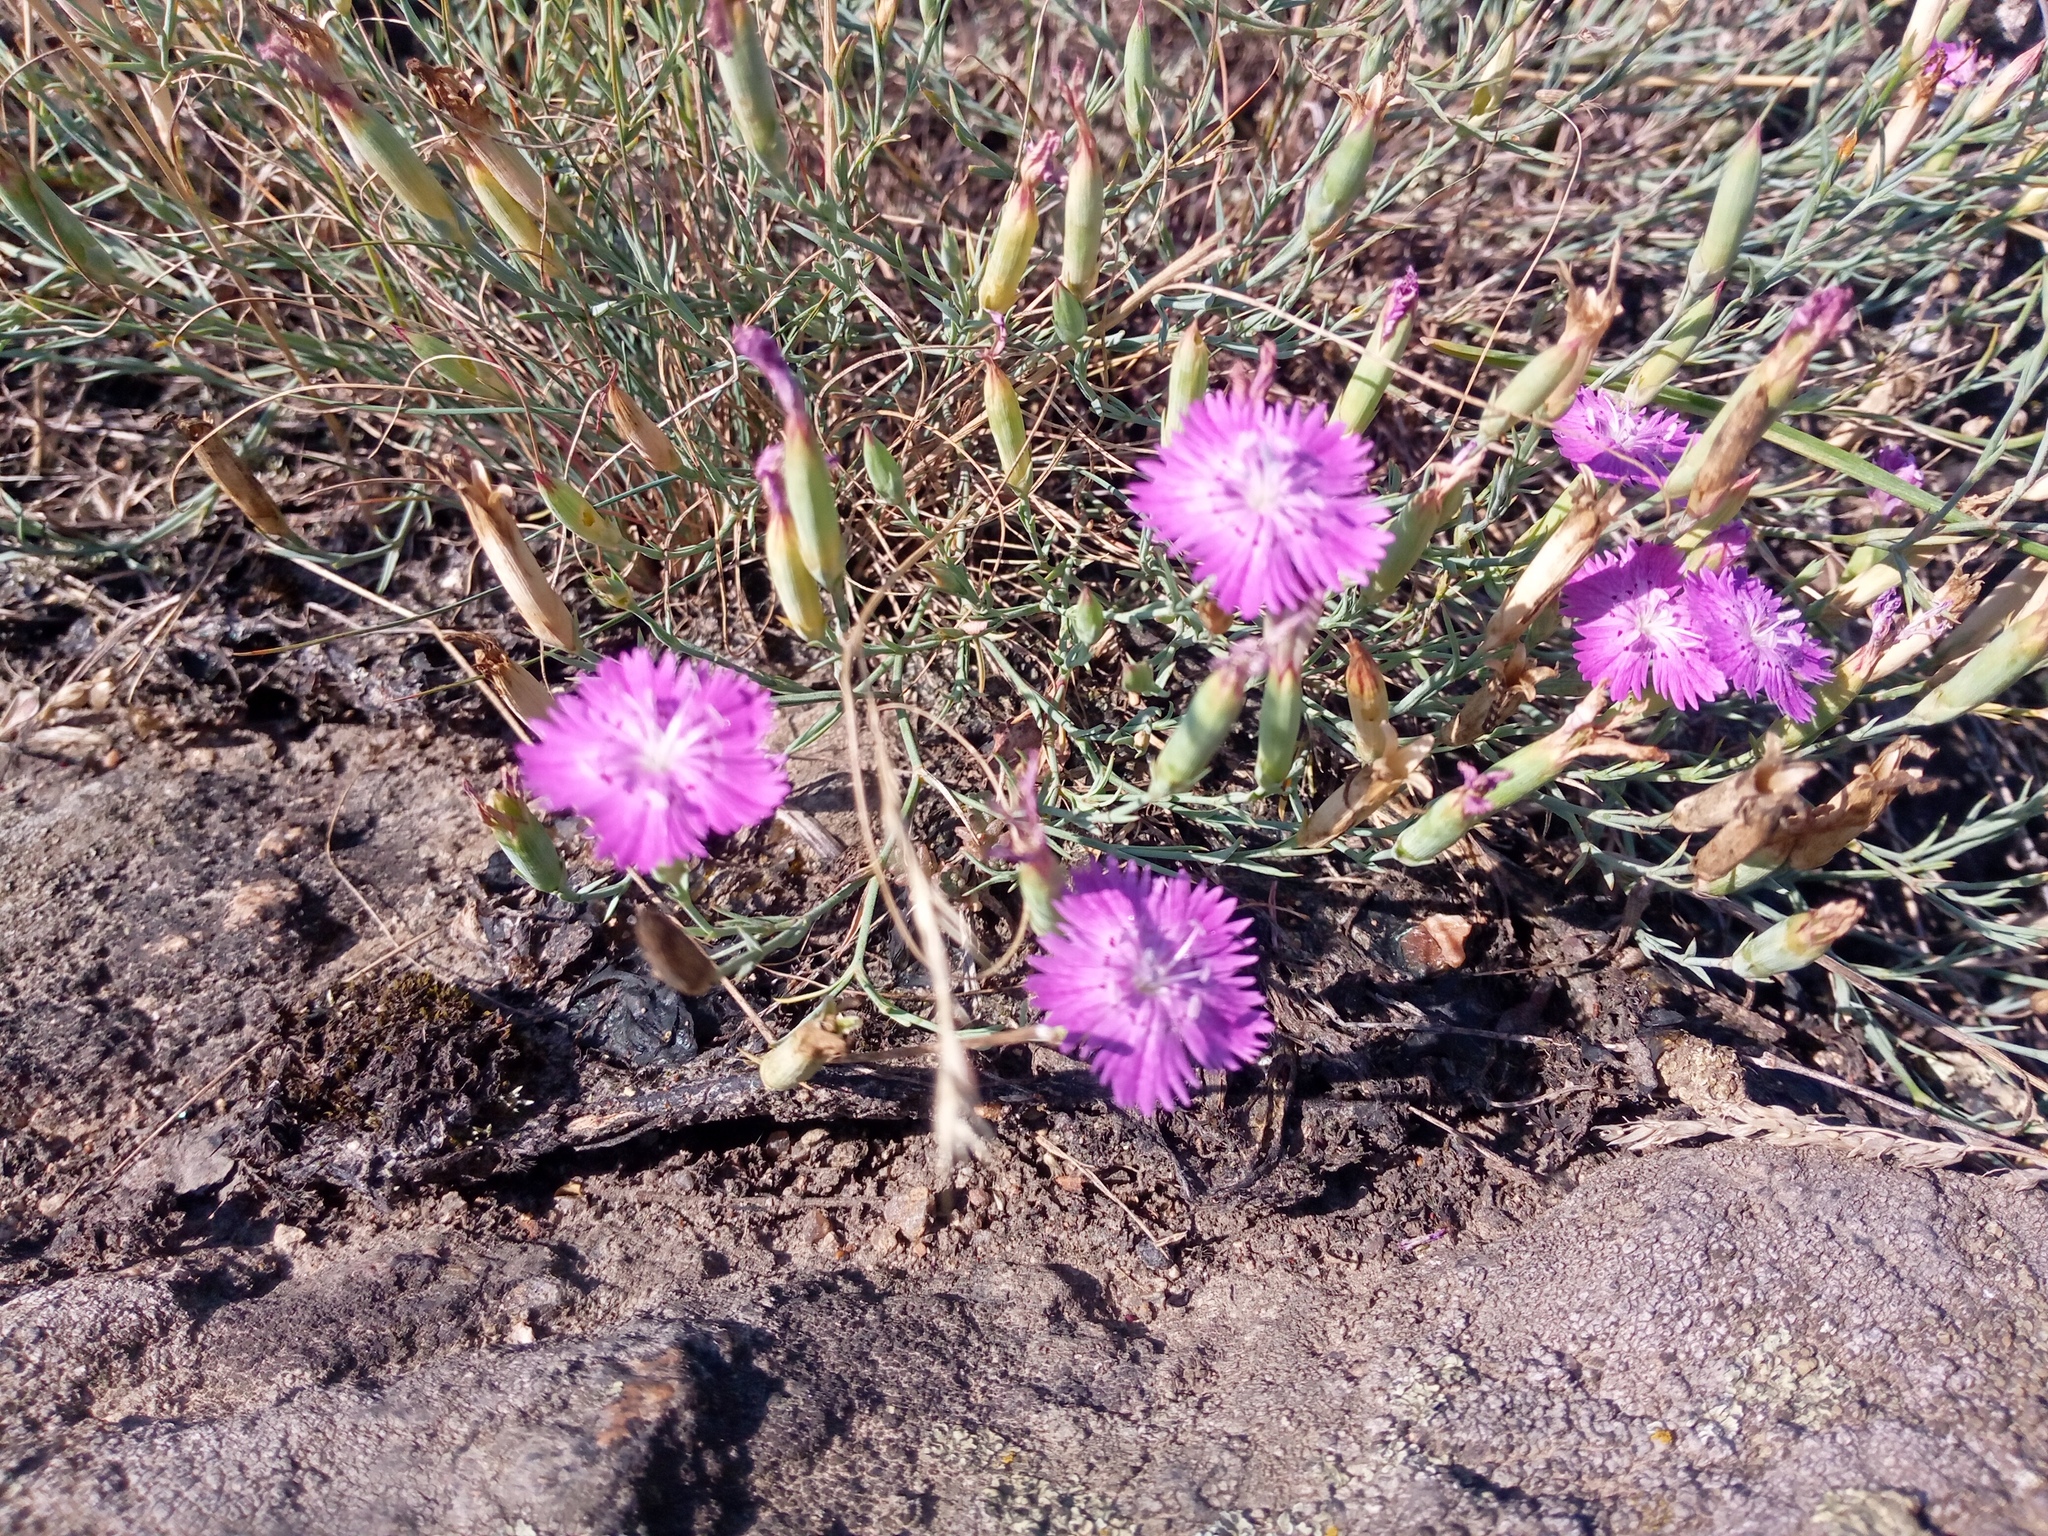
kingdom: Plantae
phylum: Tracheophyta
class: Magnoliopsida
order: Caryophyllales
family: Caryophyllaceae
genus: Dianthus
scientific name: Dianthus hypanicus
